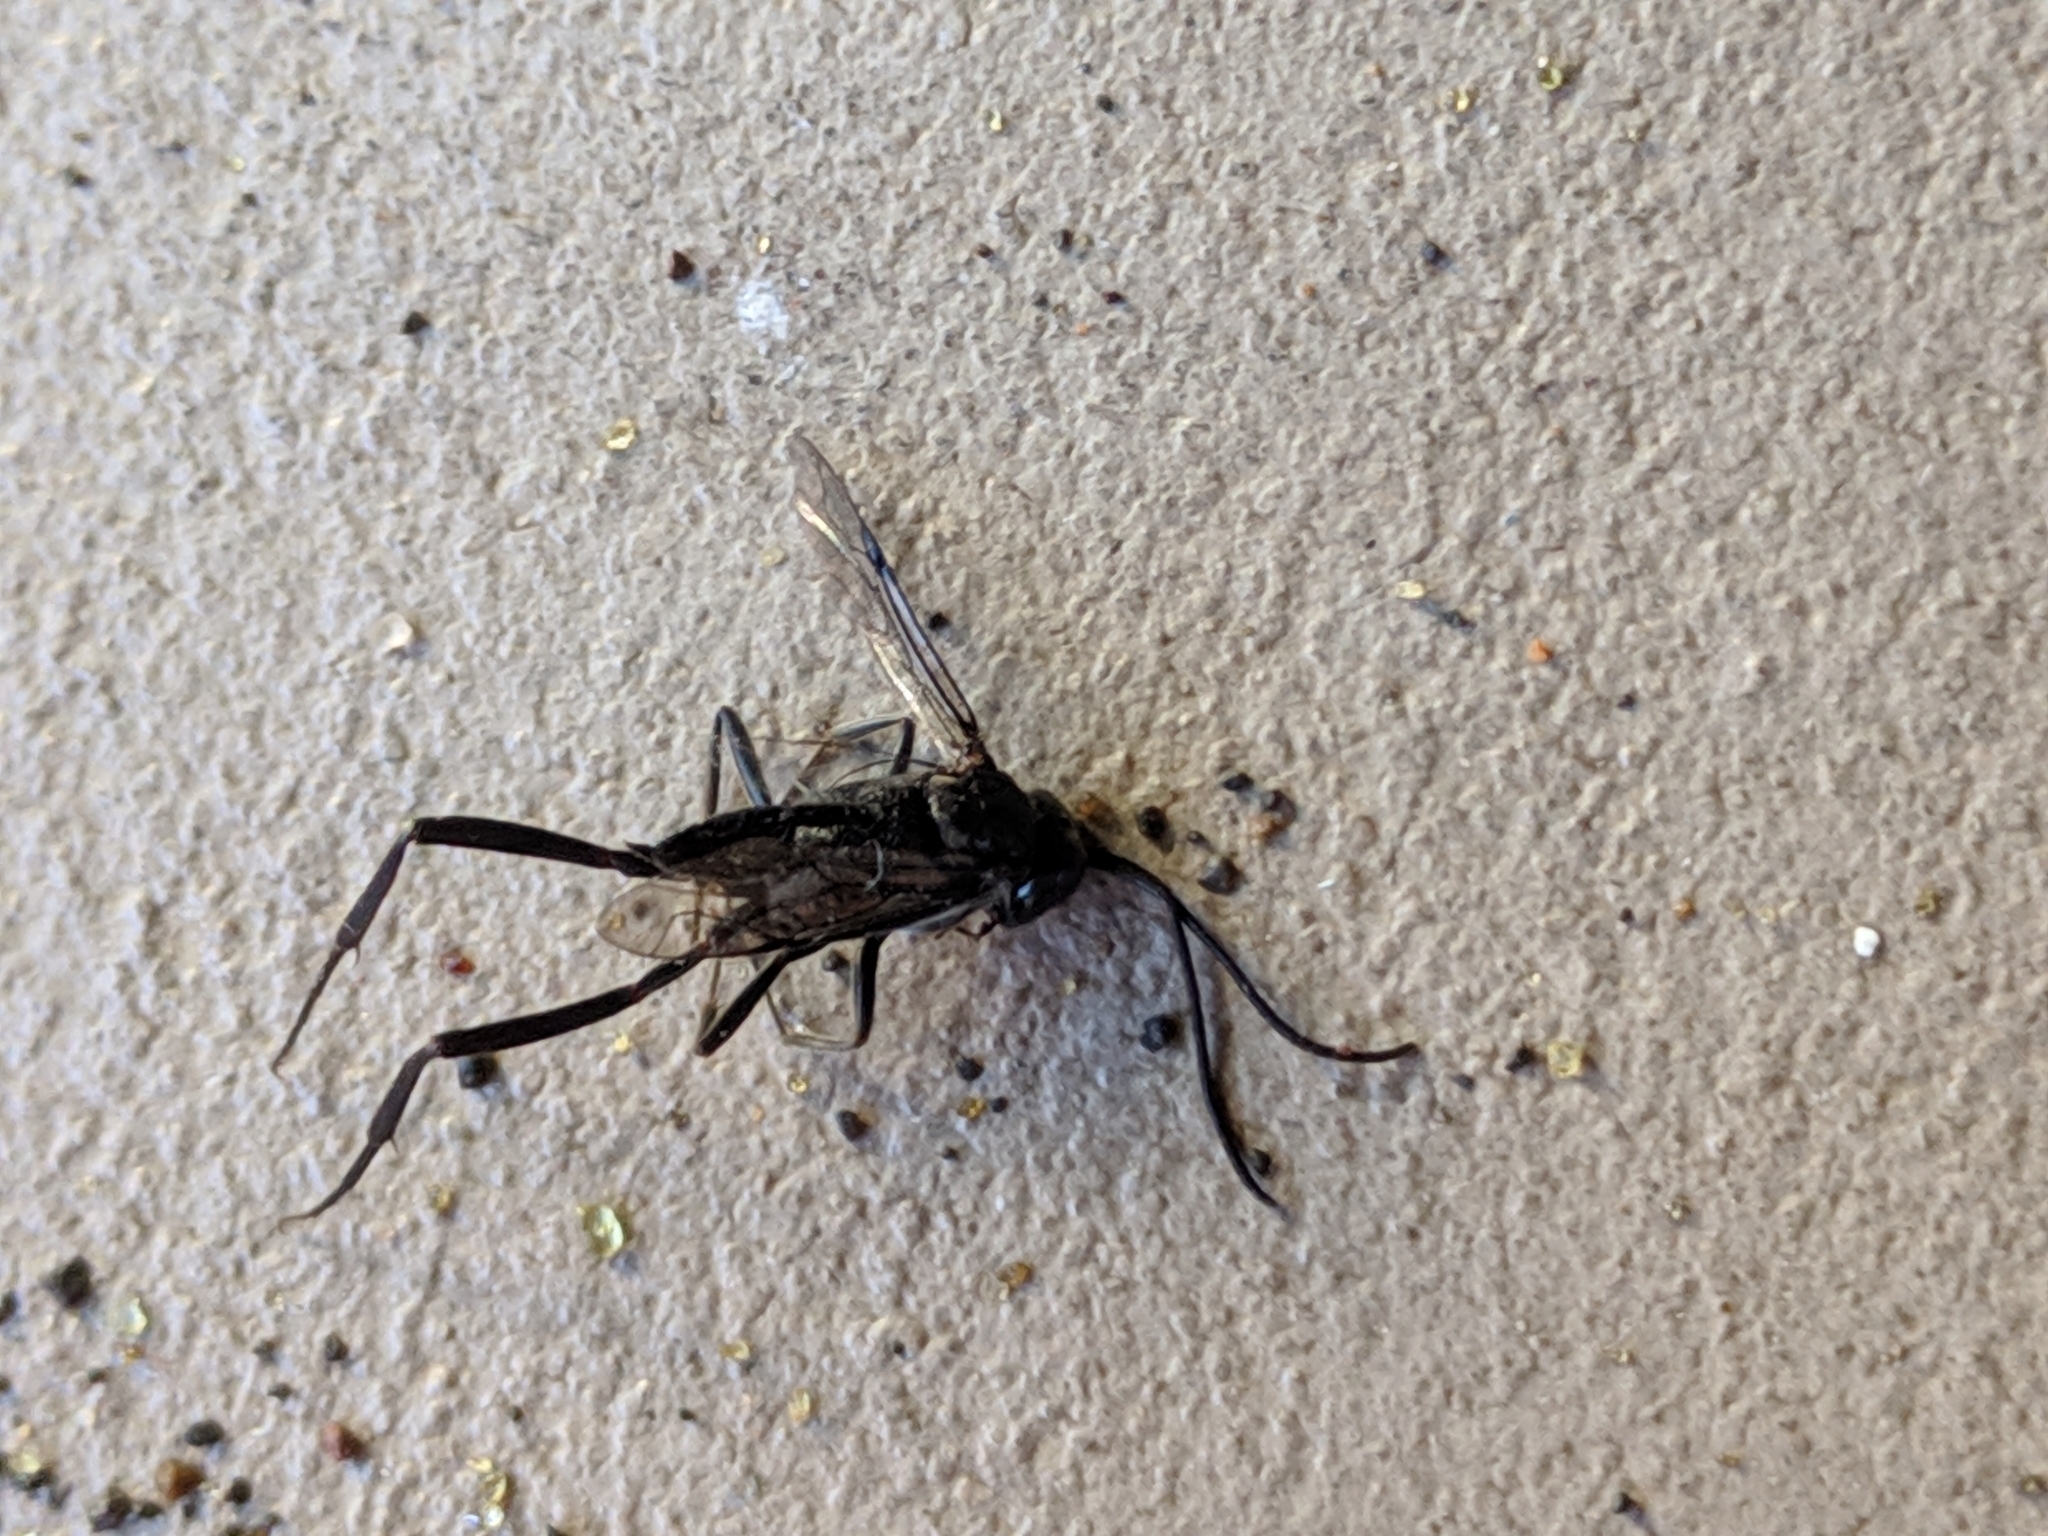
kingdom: Animalia
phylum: Arthropoda
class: Insecta
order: Hymenoptera
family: Evaniidae
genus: Evania
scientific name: Evania appendigaster
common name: Ensign wasp
